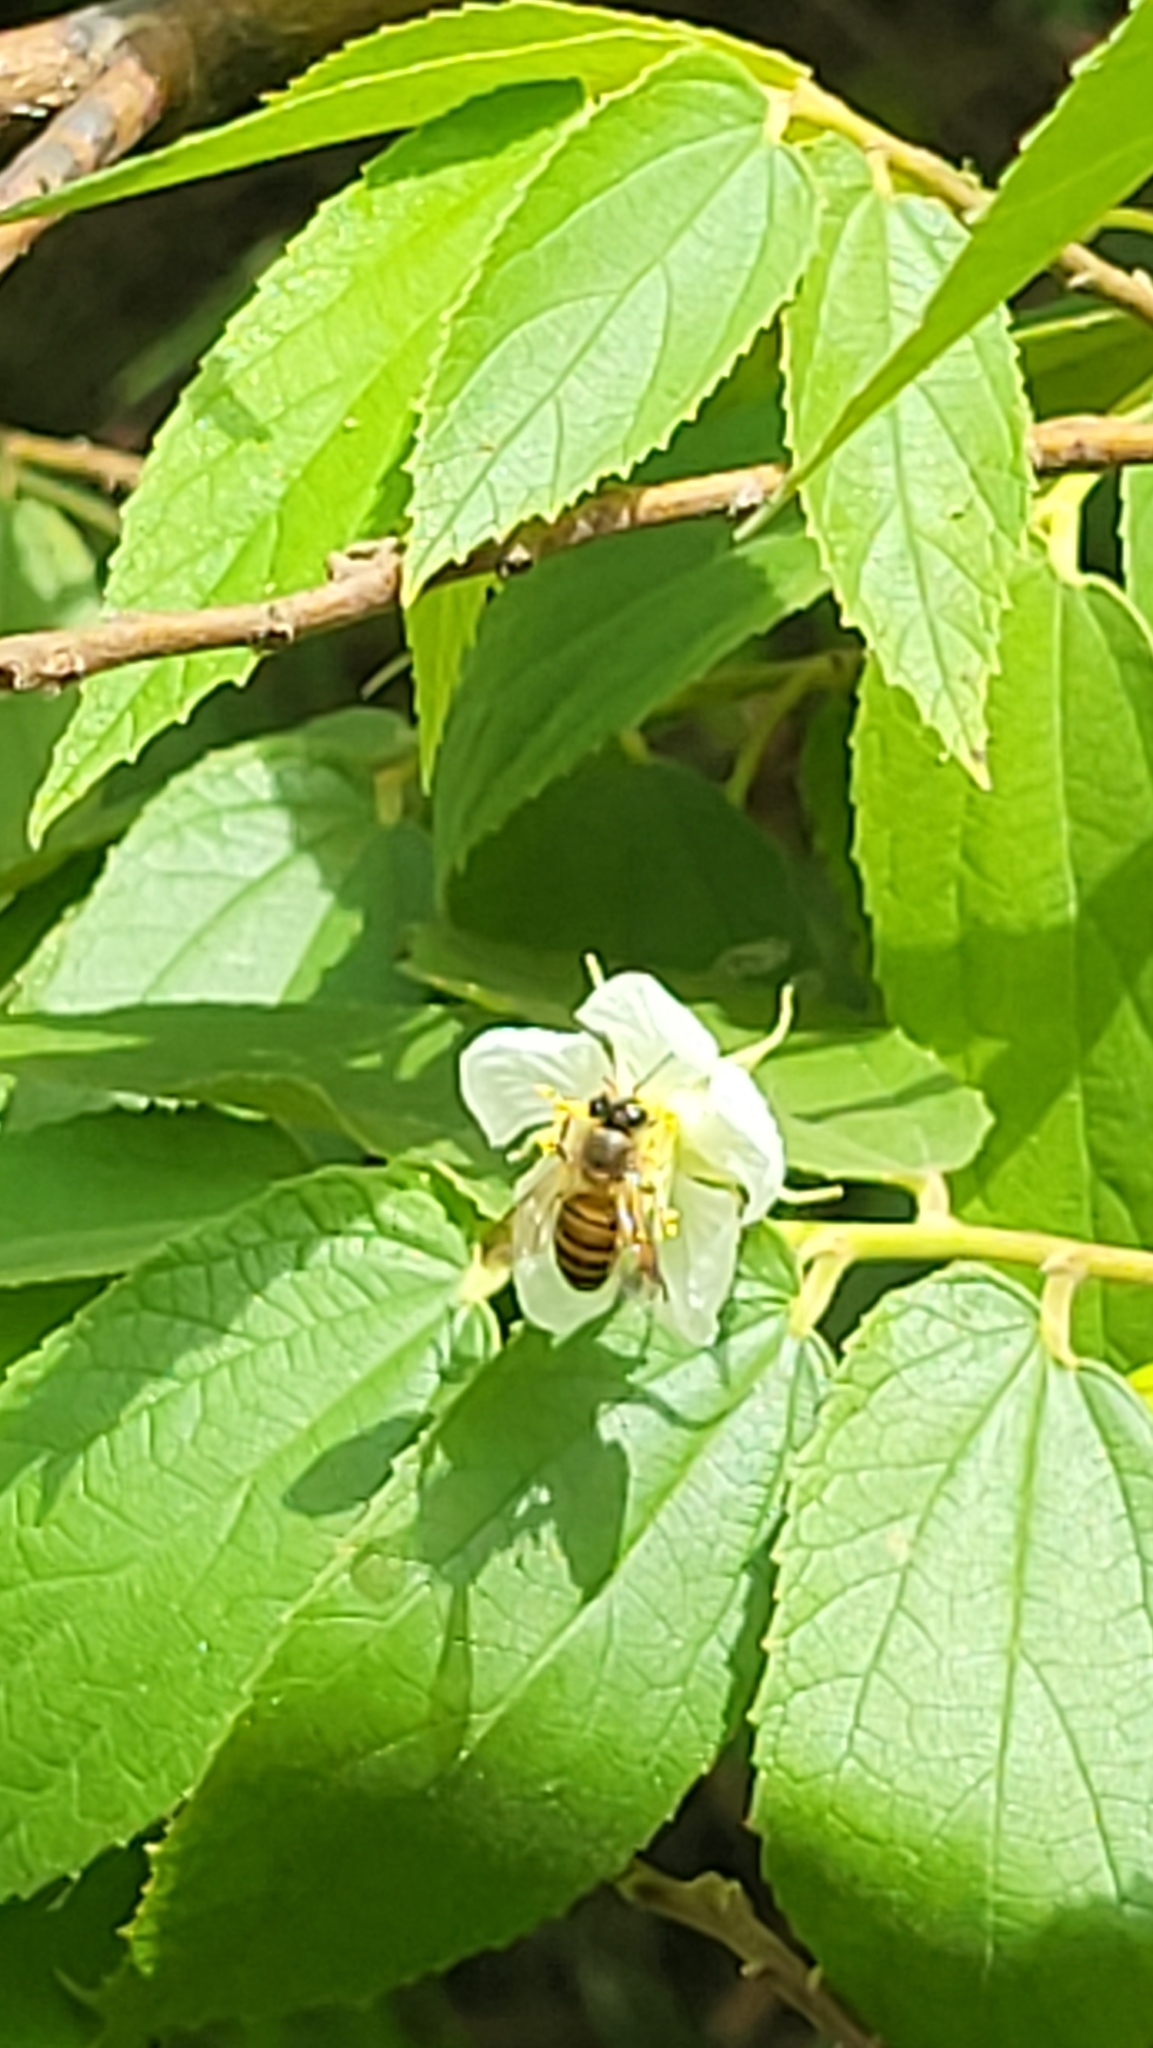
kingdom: Animalia
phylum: Arthropoda
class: Insecta
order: Hymenoptera
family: Apidae
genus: Apis
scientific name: Apis cerana
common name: Honey bee
